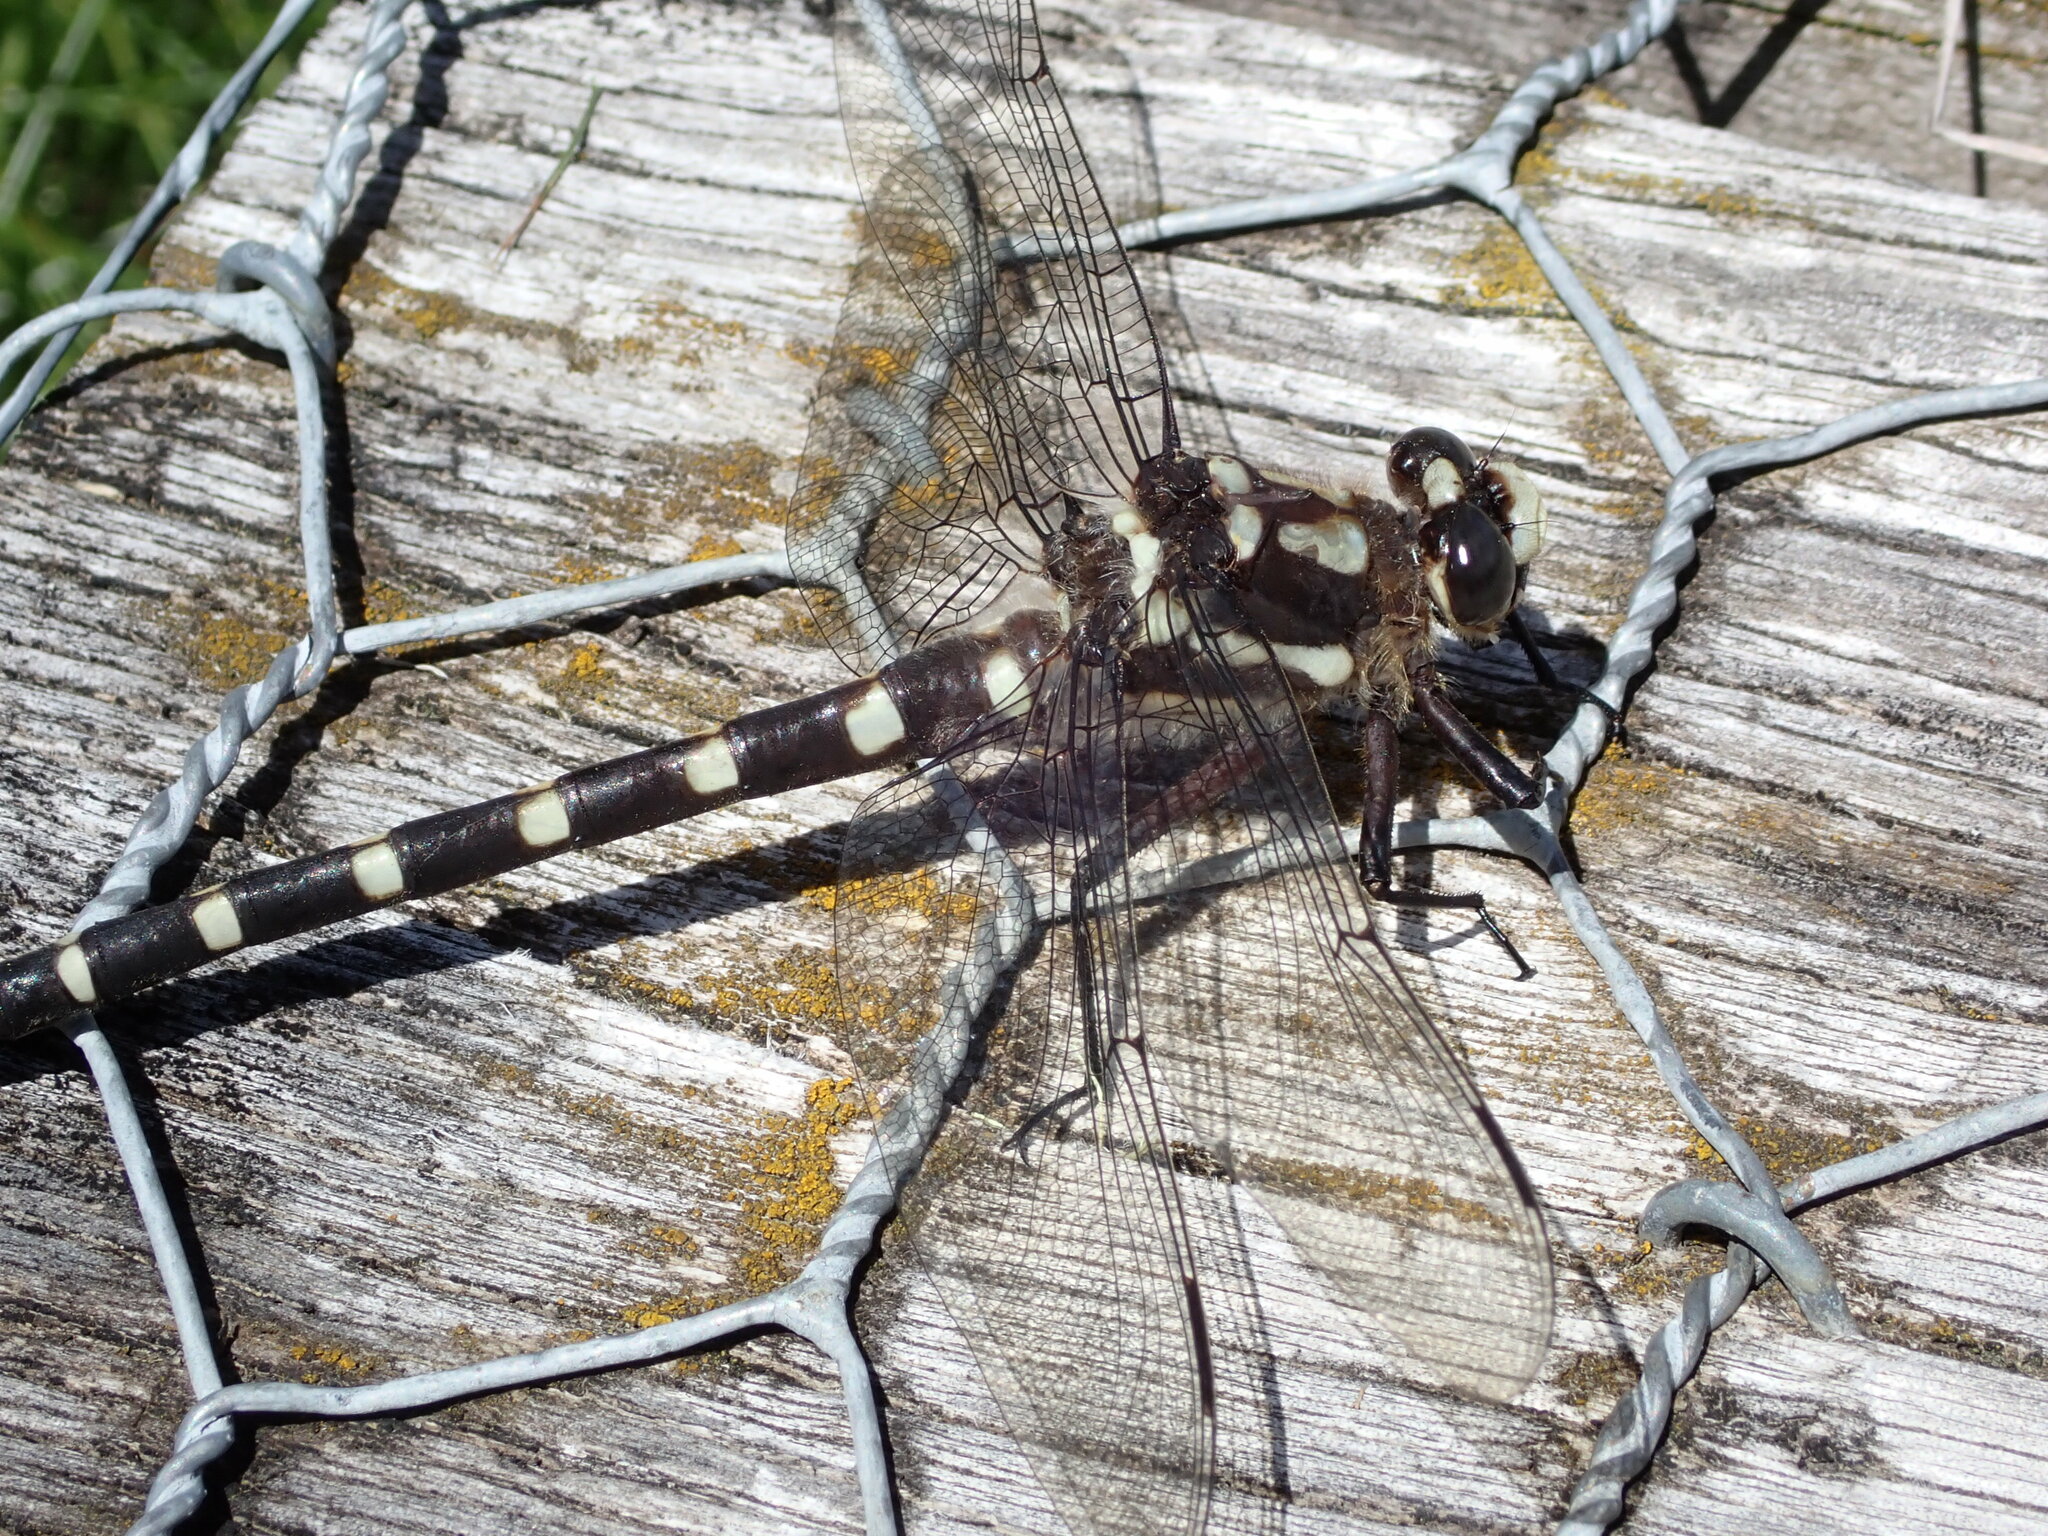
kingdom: Animalia
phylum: Arthropoda
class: Insecta
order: Odonata
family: Petaluridae
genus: Uropetala
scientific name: Uropetala chiltoni
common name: Mountain giant dragonfly
